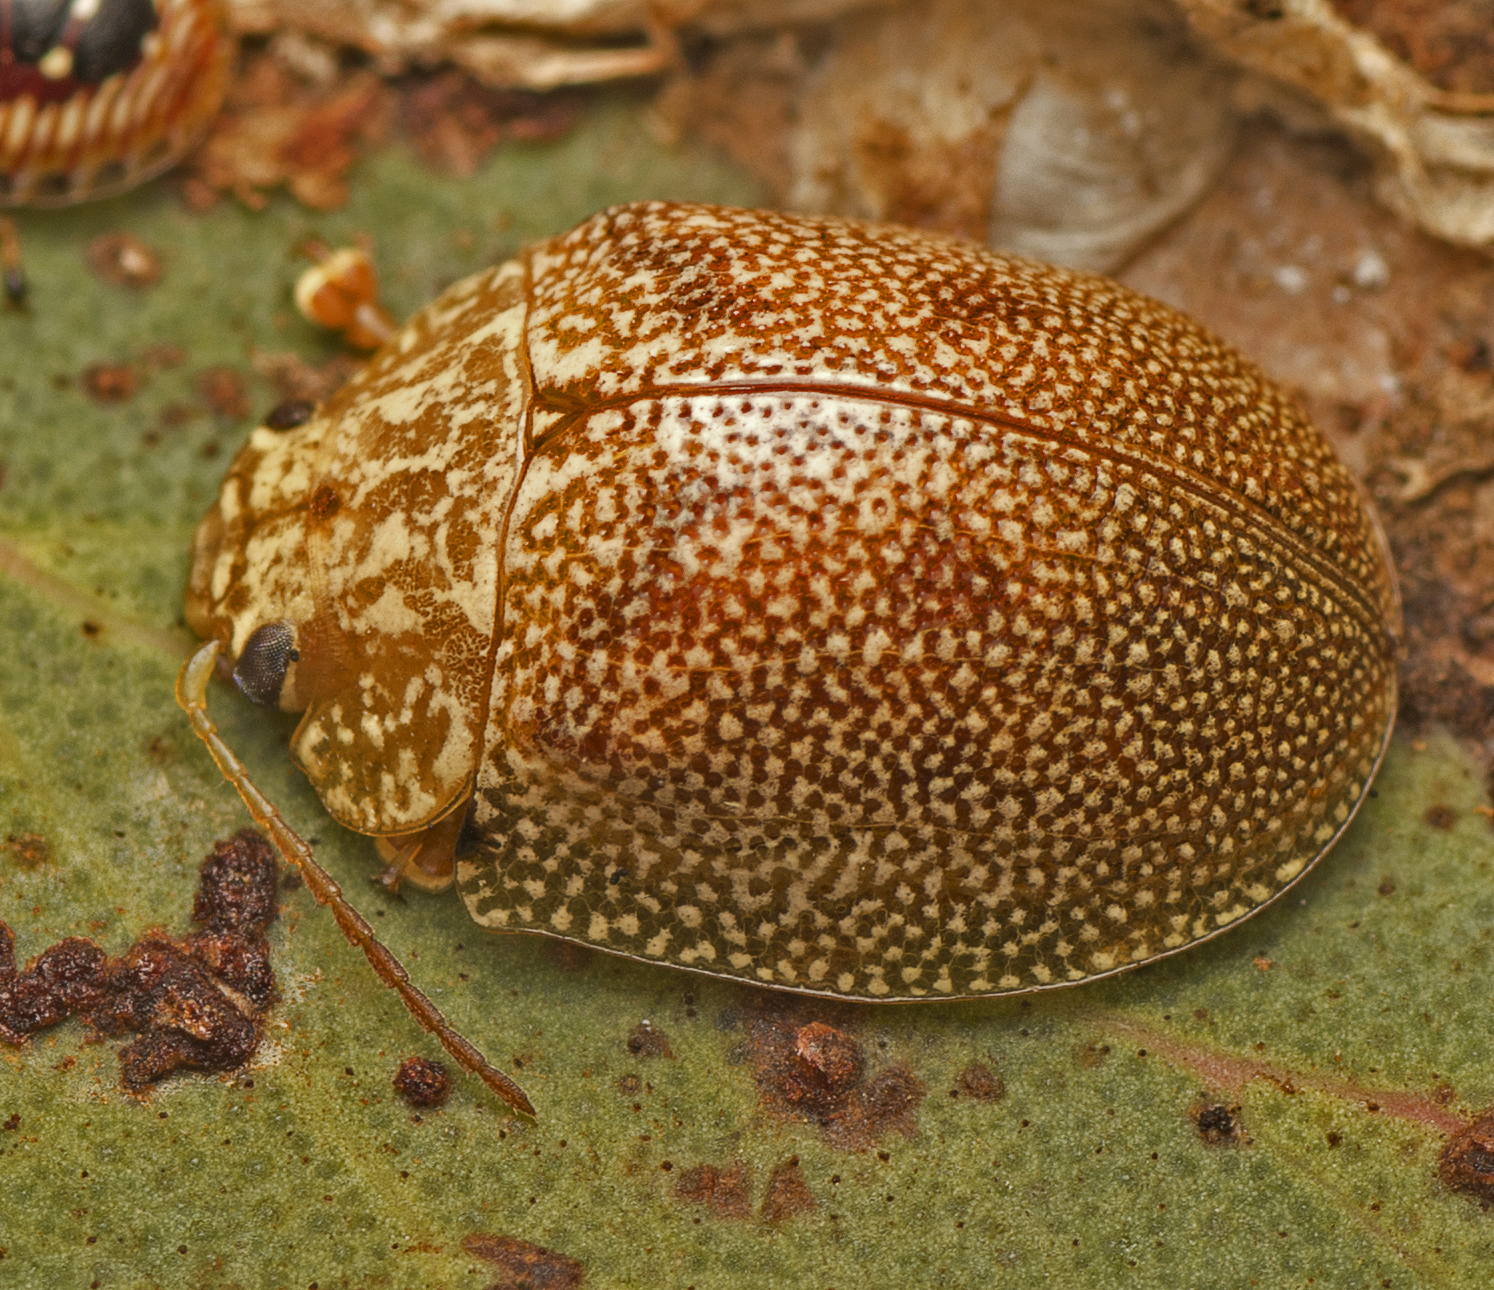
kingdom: Animalia
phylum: Arthropoda
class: Insecta
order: Coleoptera
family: Chrysomelidae
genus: Paropsis
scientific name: Paropsis
